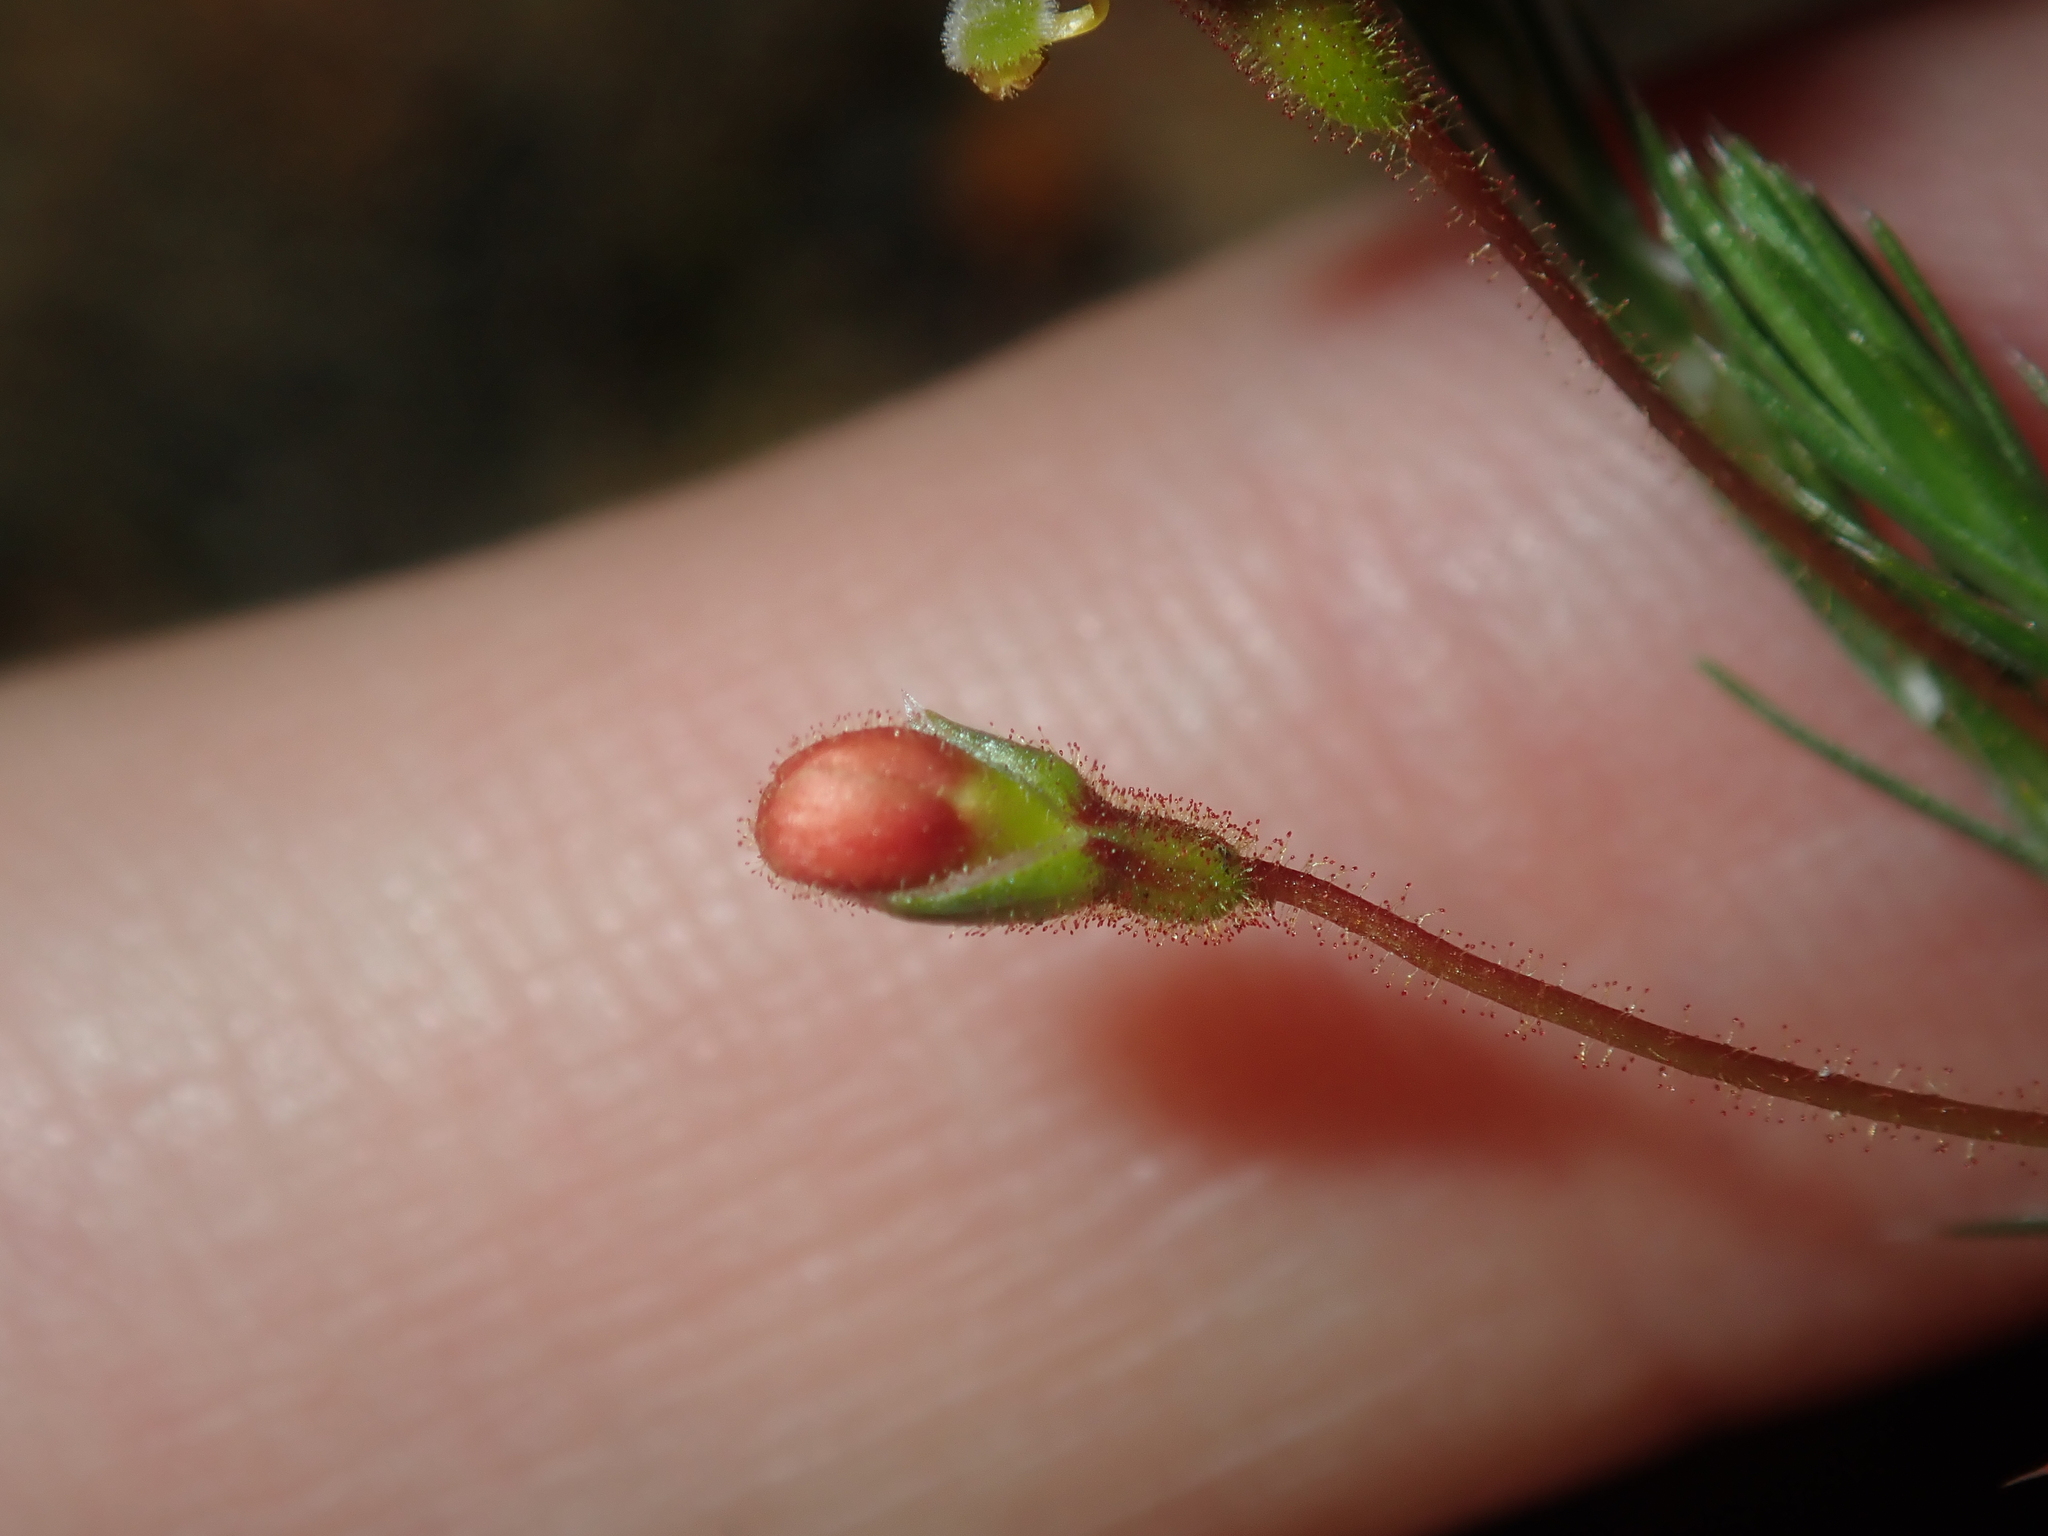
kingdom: Plantae
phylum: Tracheophyta
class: Magnoliopsida
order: Asterales
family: Stylidiaceae
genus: Stylidium
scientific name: Stylidium flagellum
